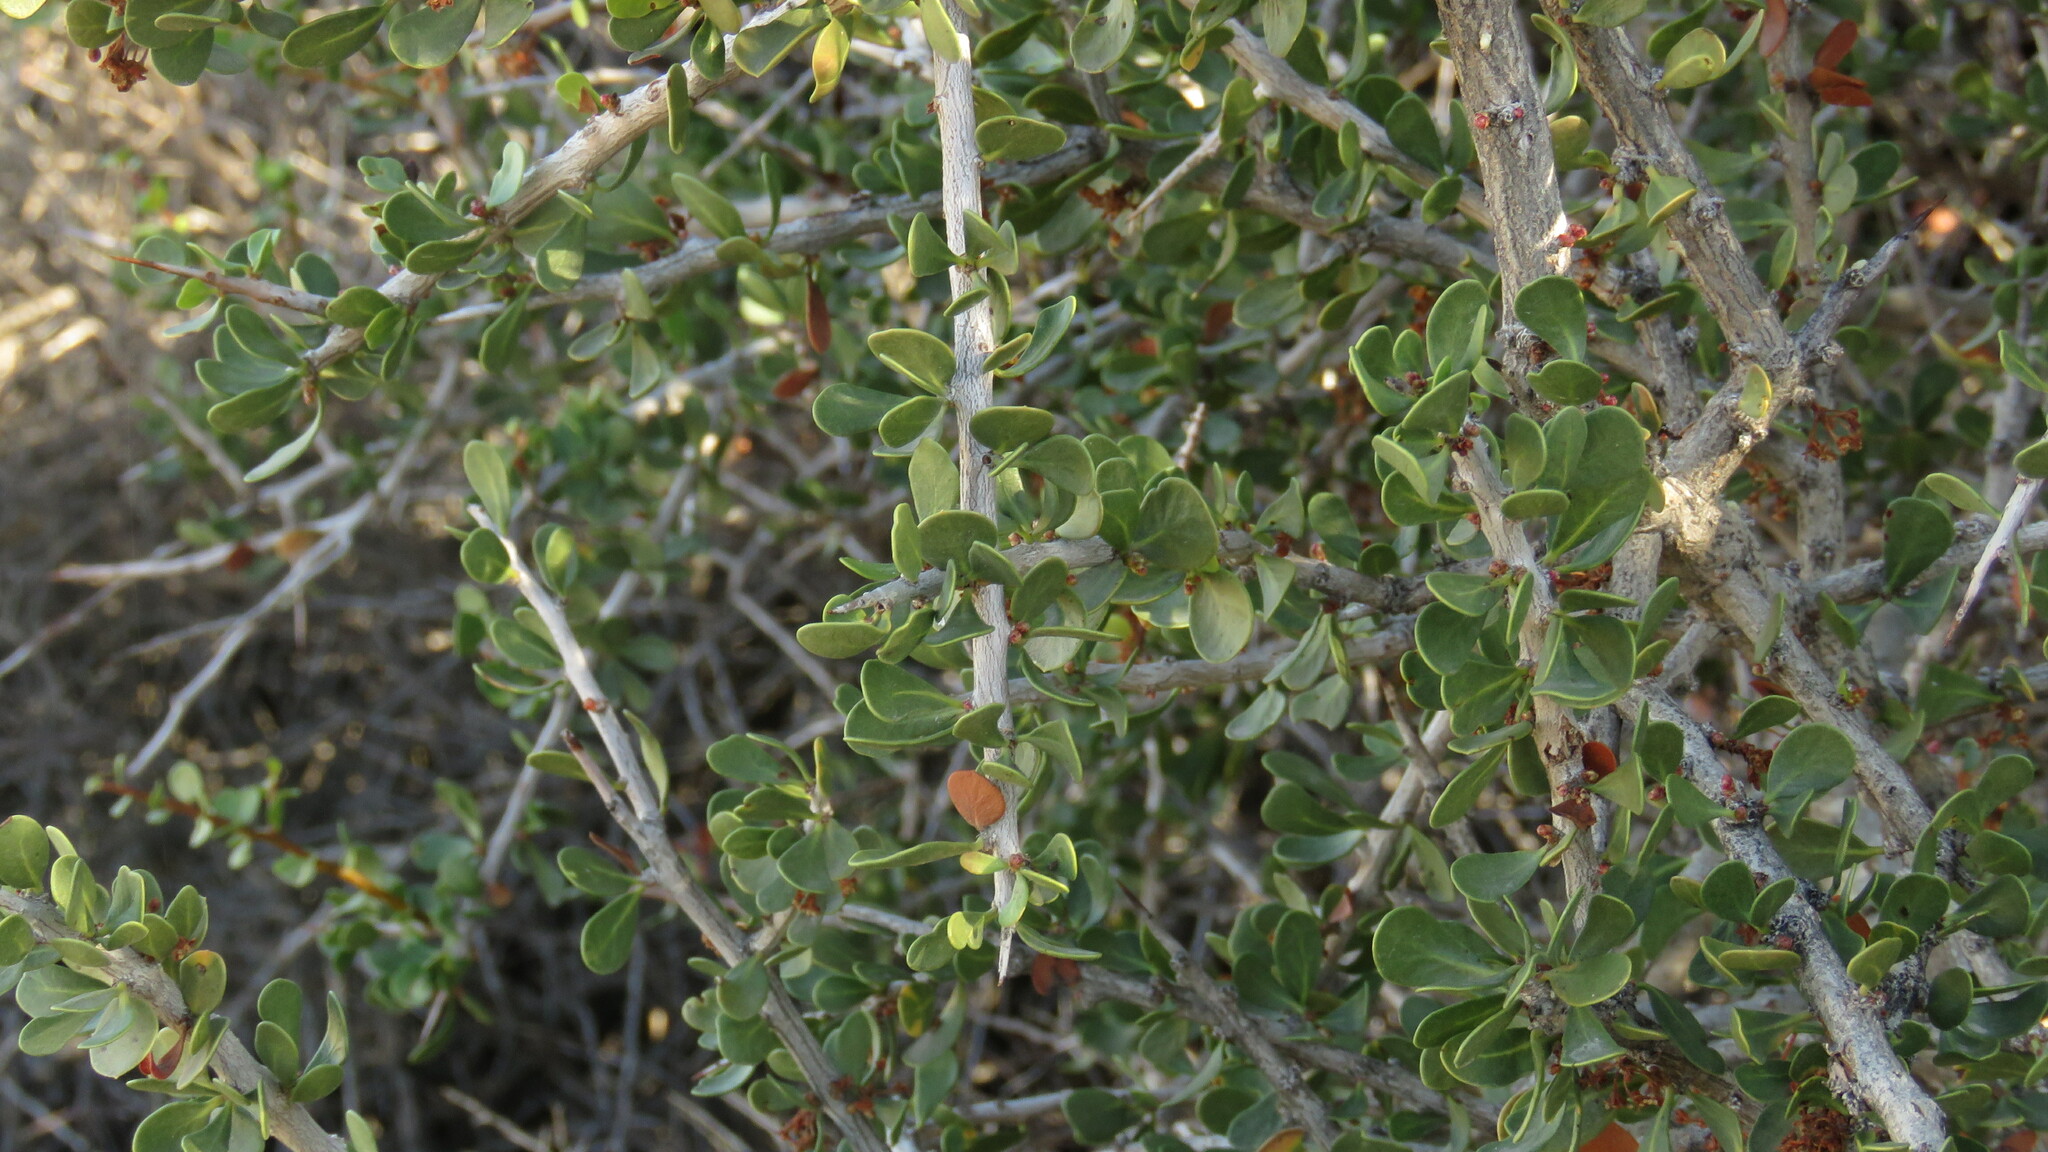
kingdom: Plantae
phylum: Tracheophyta
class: Magnoliopsida
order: Sapindales
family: Anacardiaceae
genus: Schinus
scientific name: Schinus johnstonii
